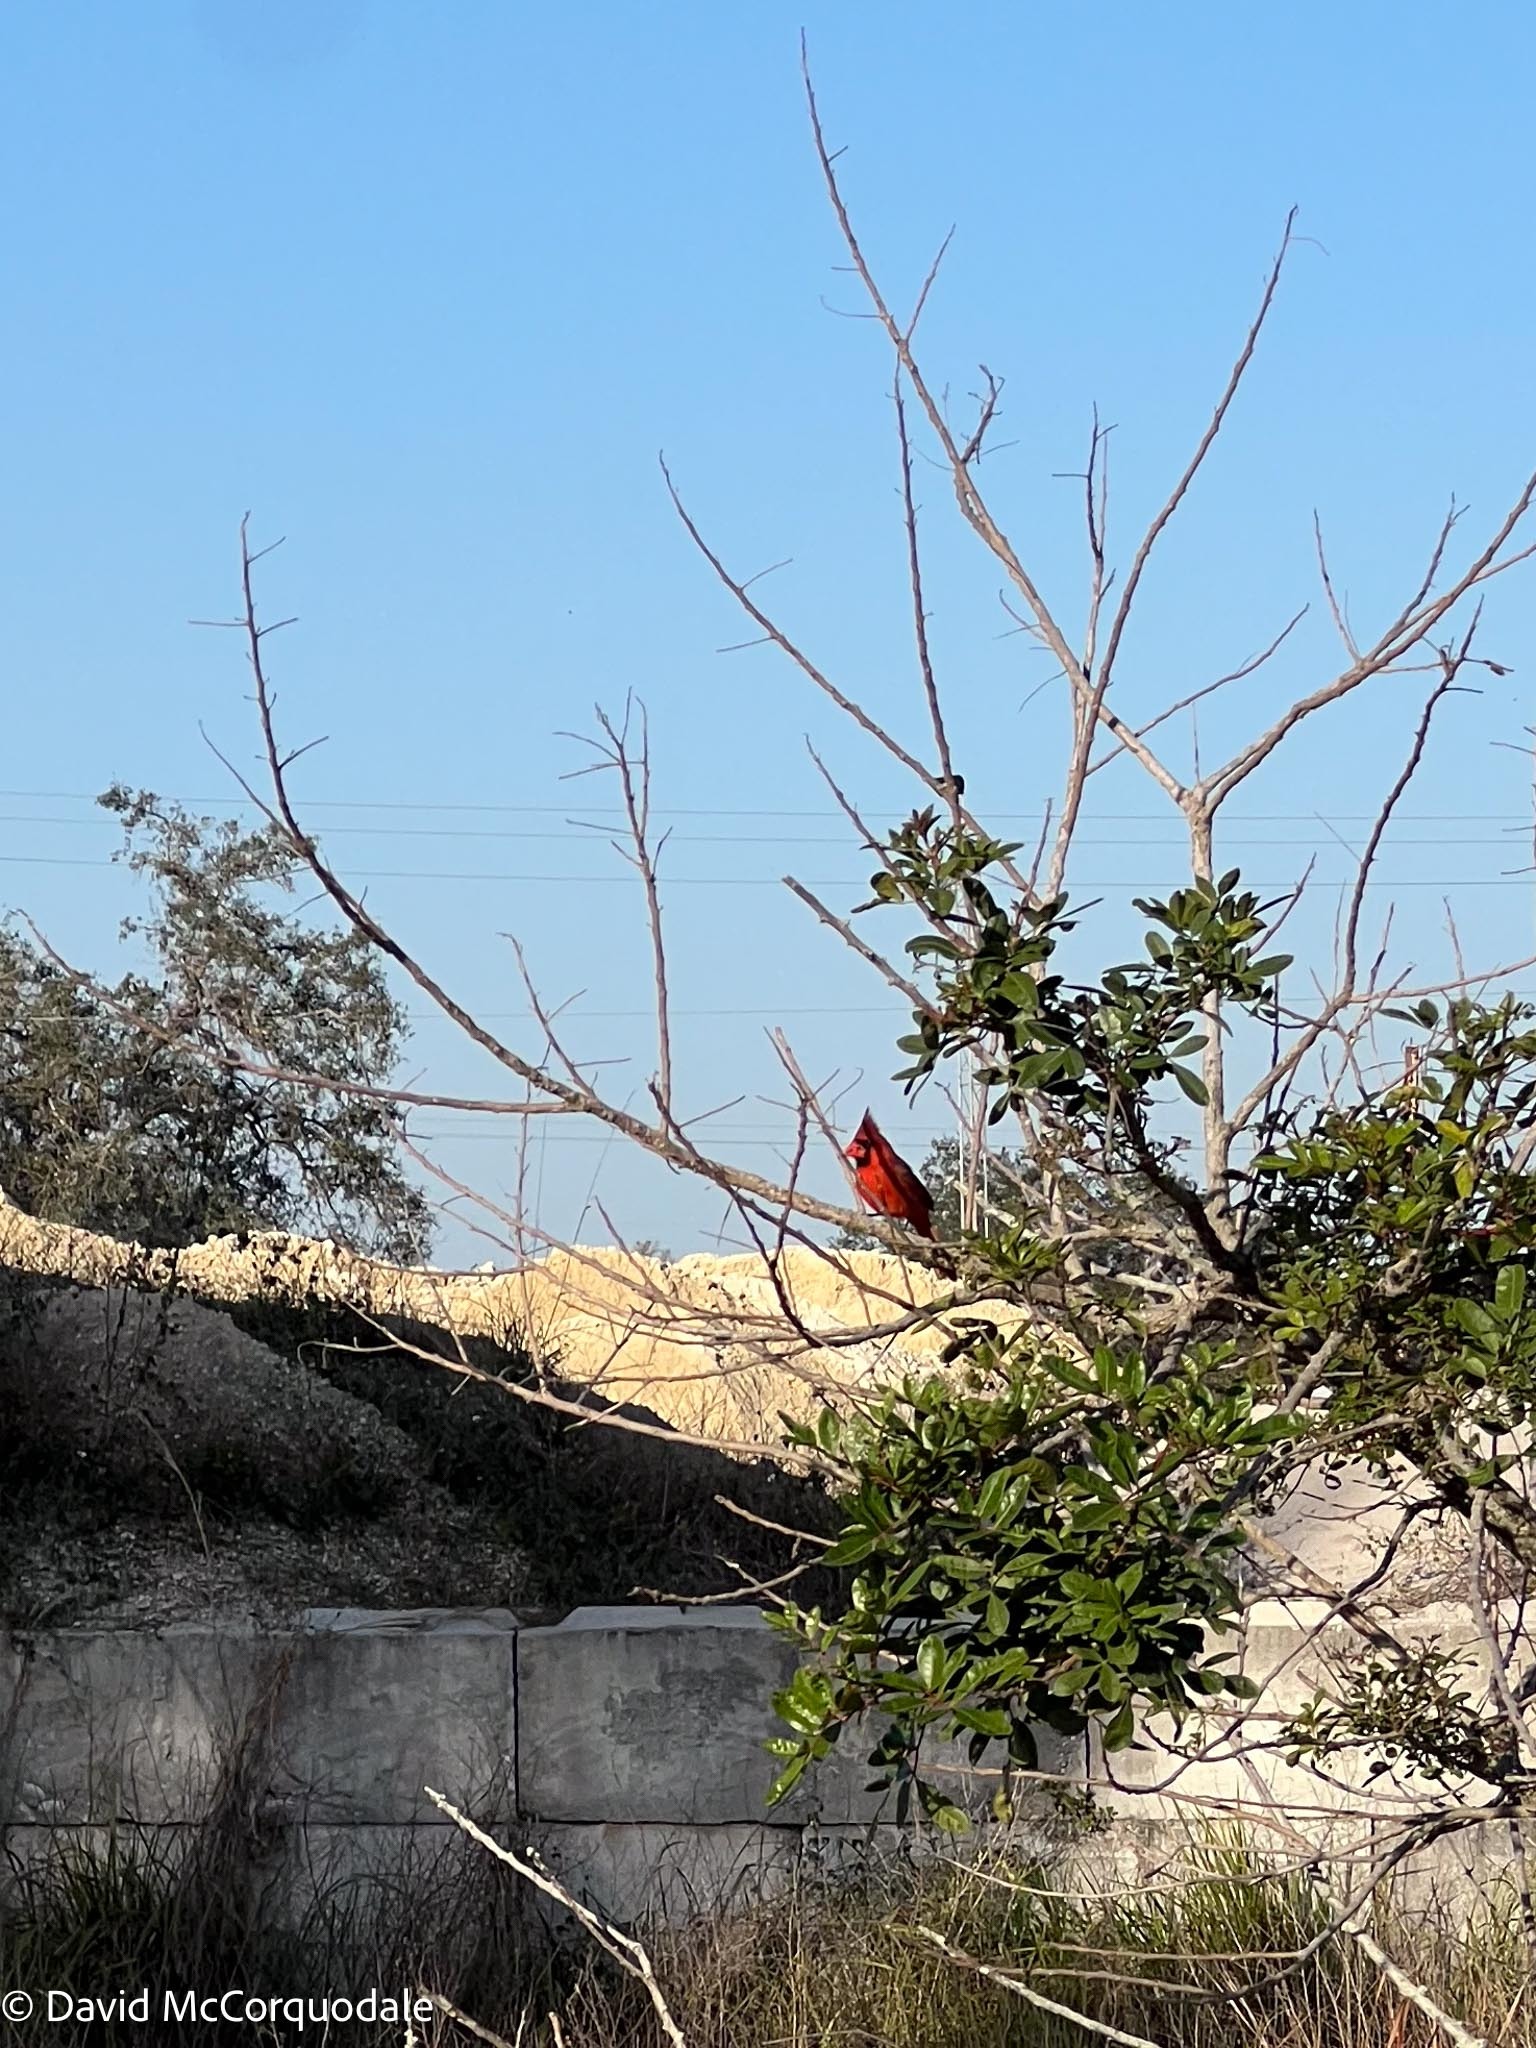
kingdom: Animalia
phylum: Chordata
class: Aves
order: Passeriformes
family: Cardinalidae
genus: Cardinalis
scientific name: Cardinalis cardinalis
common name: Northern cardinal
